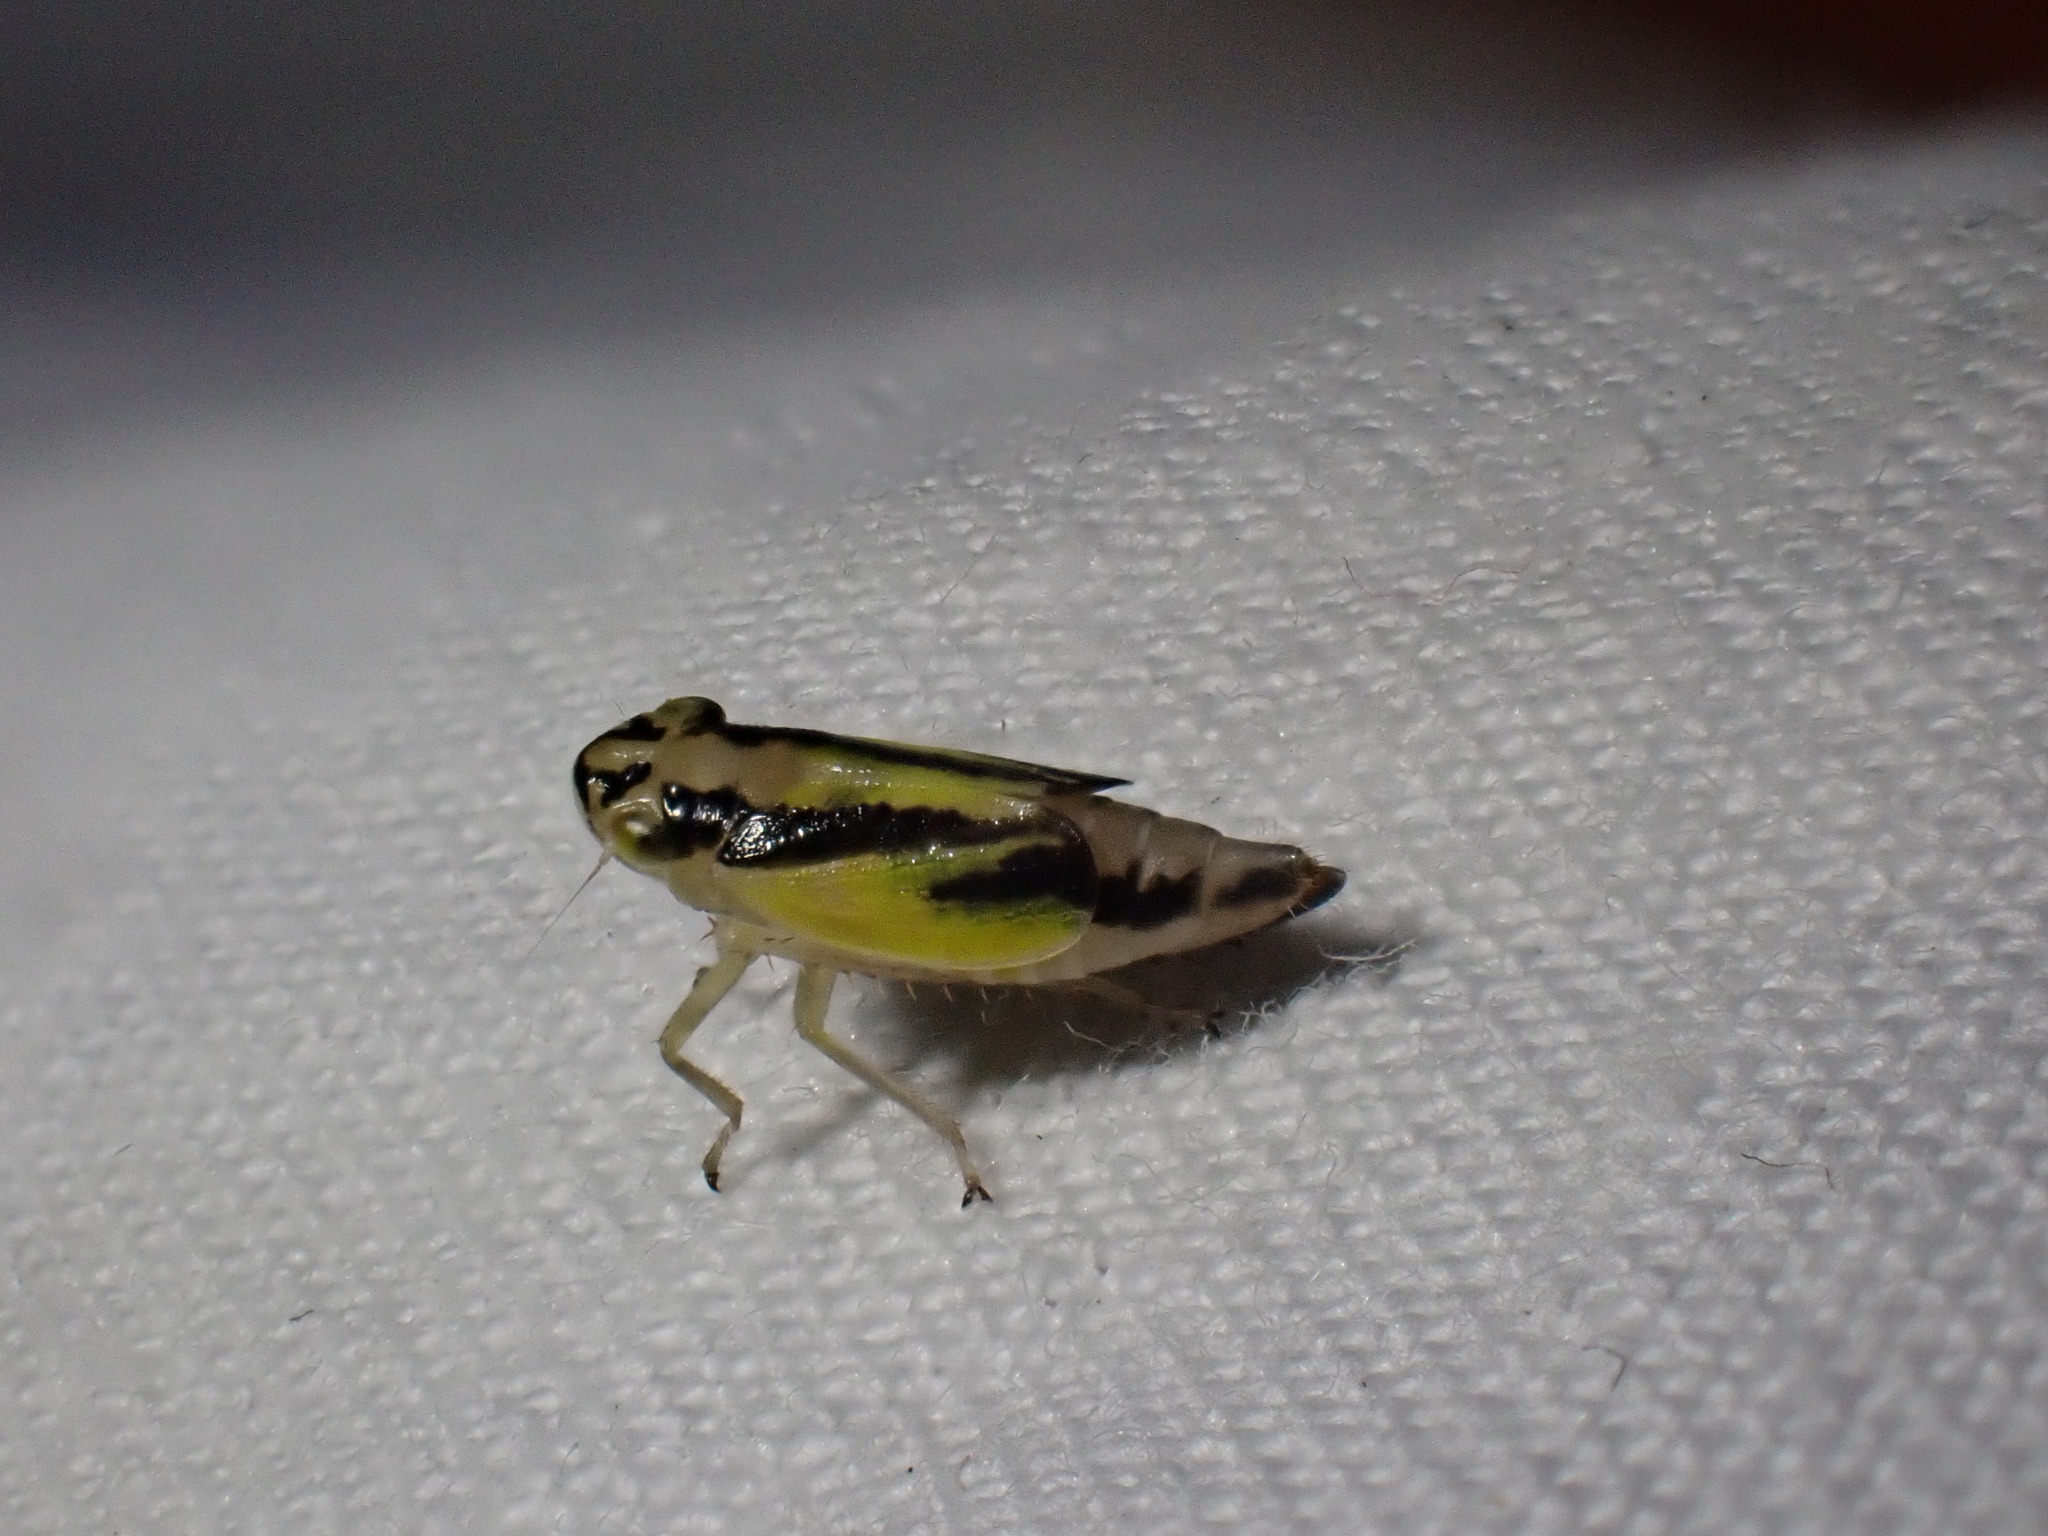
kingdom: Animalia
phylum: Arthropoda
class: Insecta
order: Hemiptera
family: Cicadellidae
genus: Evacanthus
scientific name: Evacanthus interruptus
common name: Leafhopper
